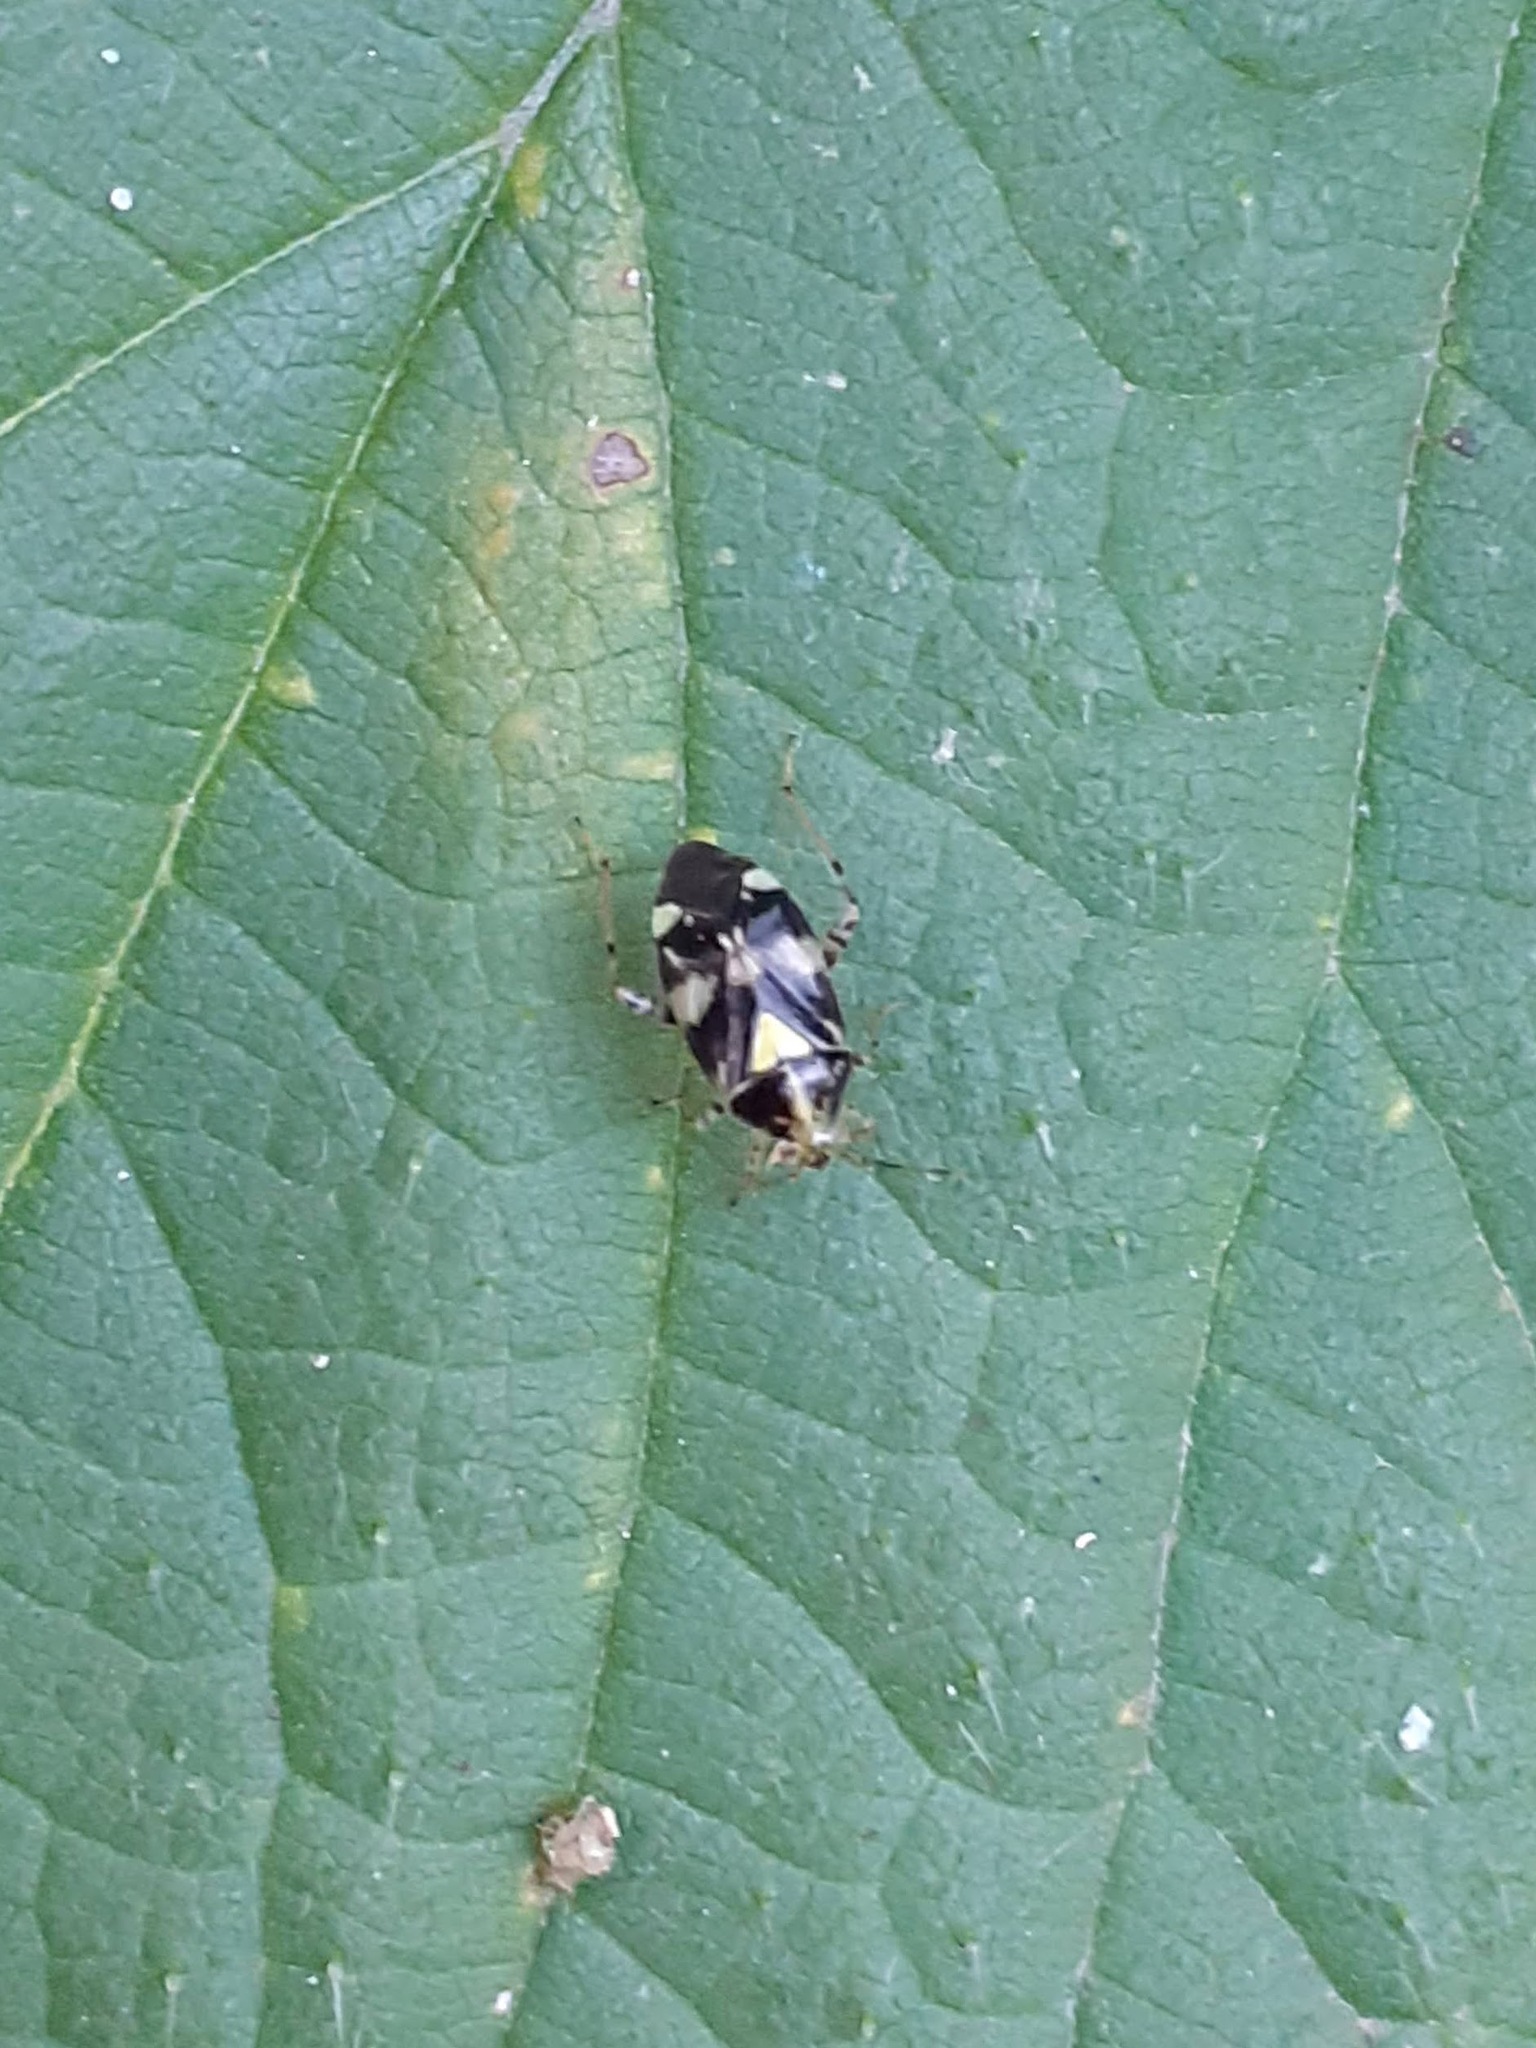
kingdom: Animalia
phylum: Arthropoda
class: Insecta
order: Hemiptera
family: Miridae
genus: Liocoris
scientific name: Liocoris tripustulatus
